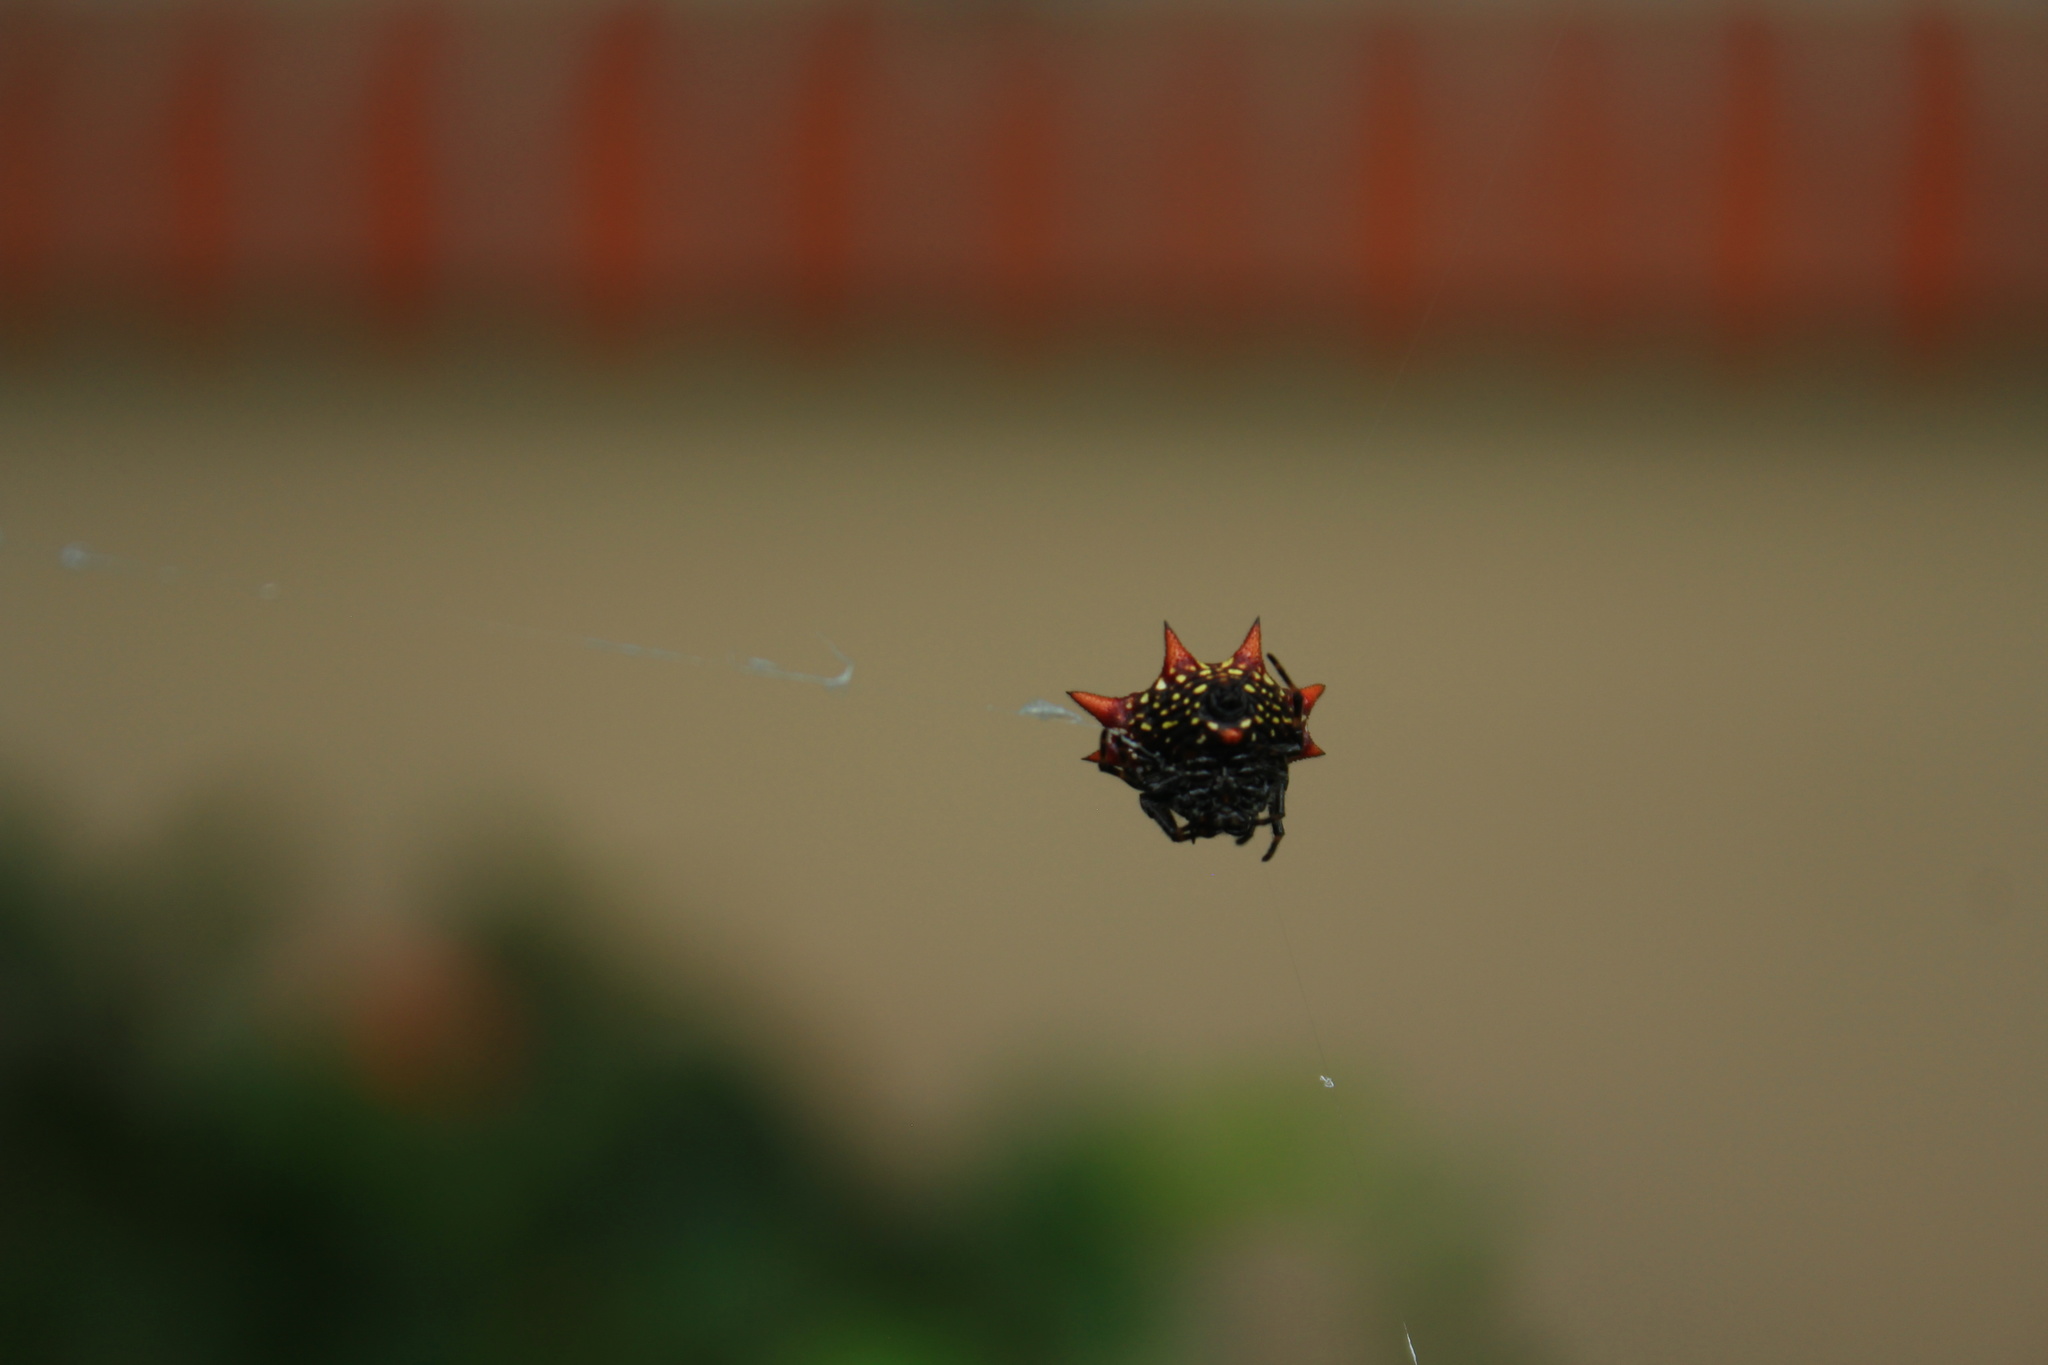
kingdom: Animalia
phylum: Arthropoda
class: Arachnida
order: Araneae
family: Araneidae
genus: Gasteracantha
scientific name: Gasteracantha cancriformis
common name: Orb weavers
